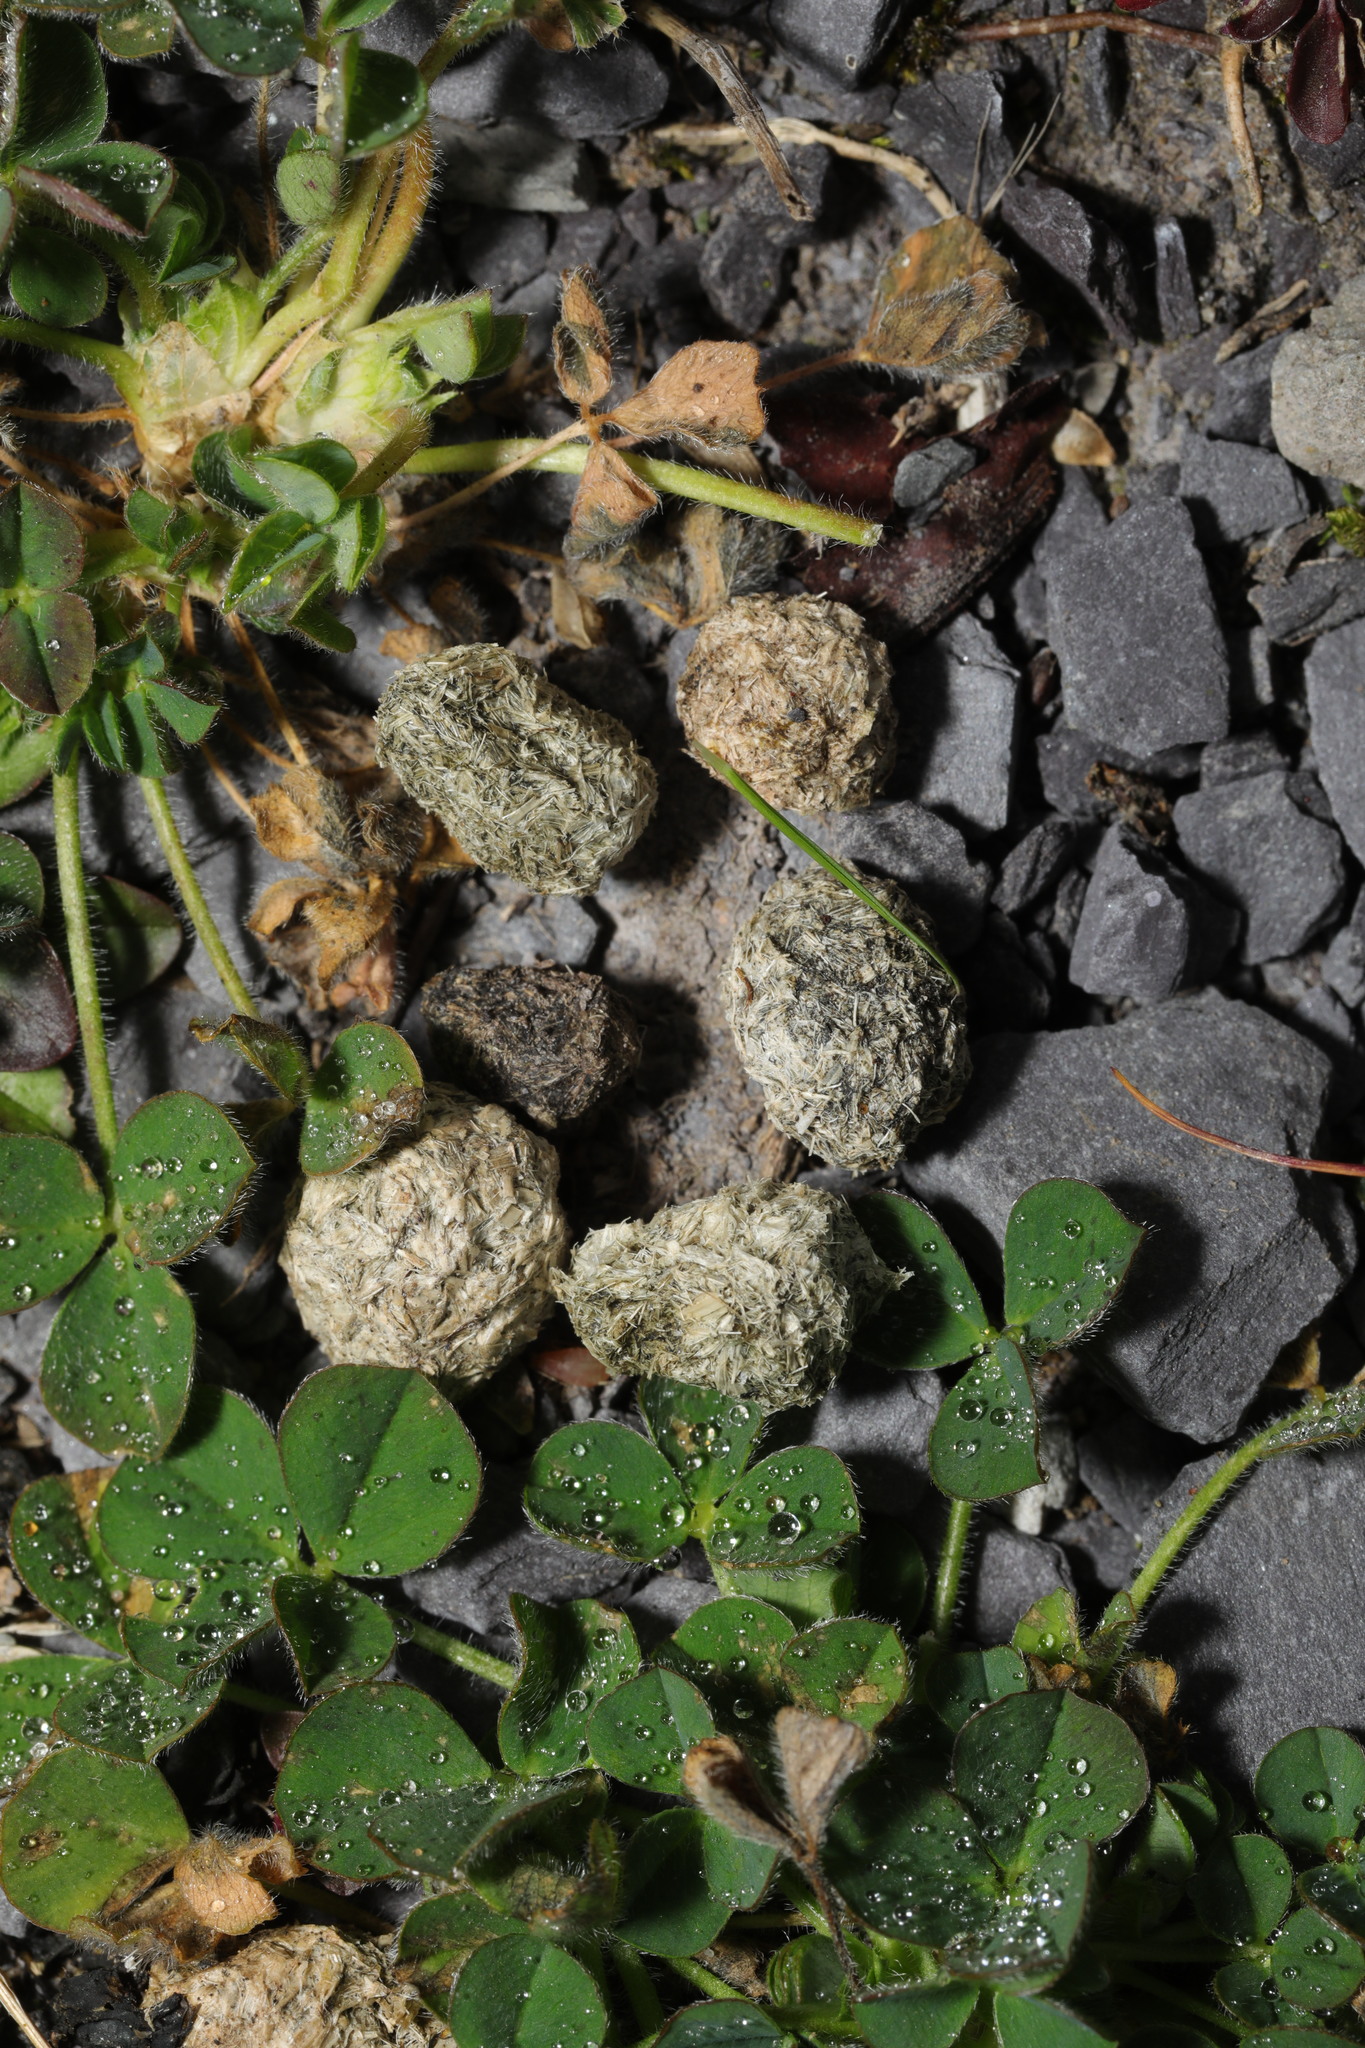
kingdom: Animalia
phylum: Chordata
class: Mammalia
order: Lagomorpha
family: Leporidae
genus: Oryctolagus
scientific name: Oryctolagus cuniculus
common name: European rabbit
